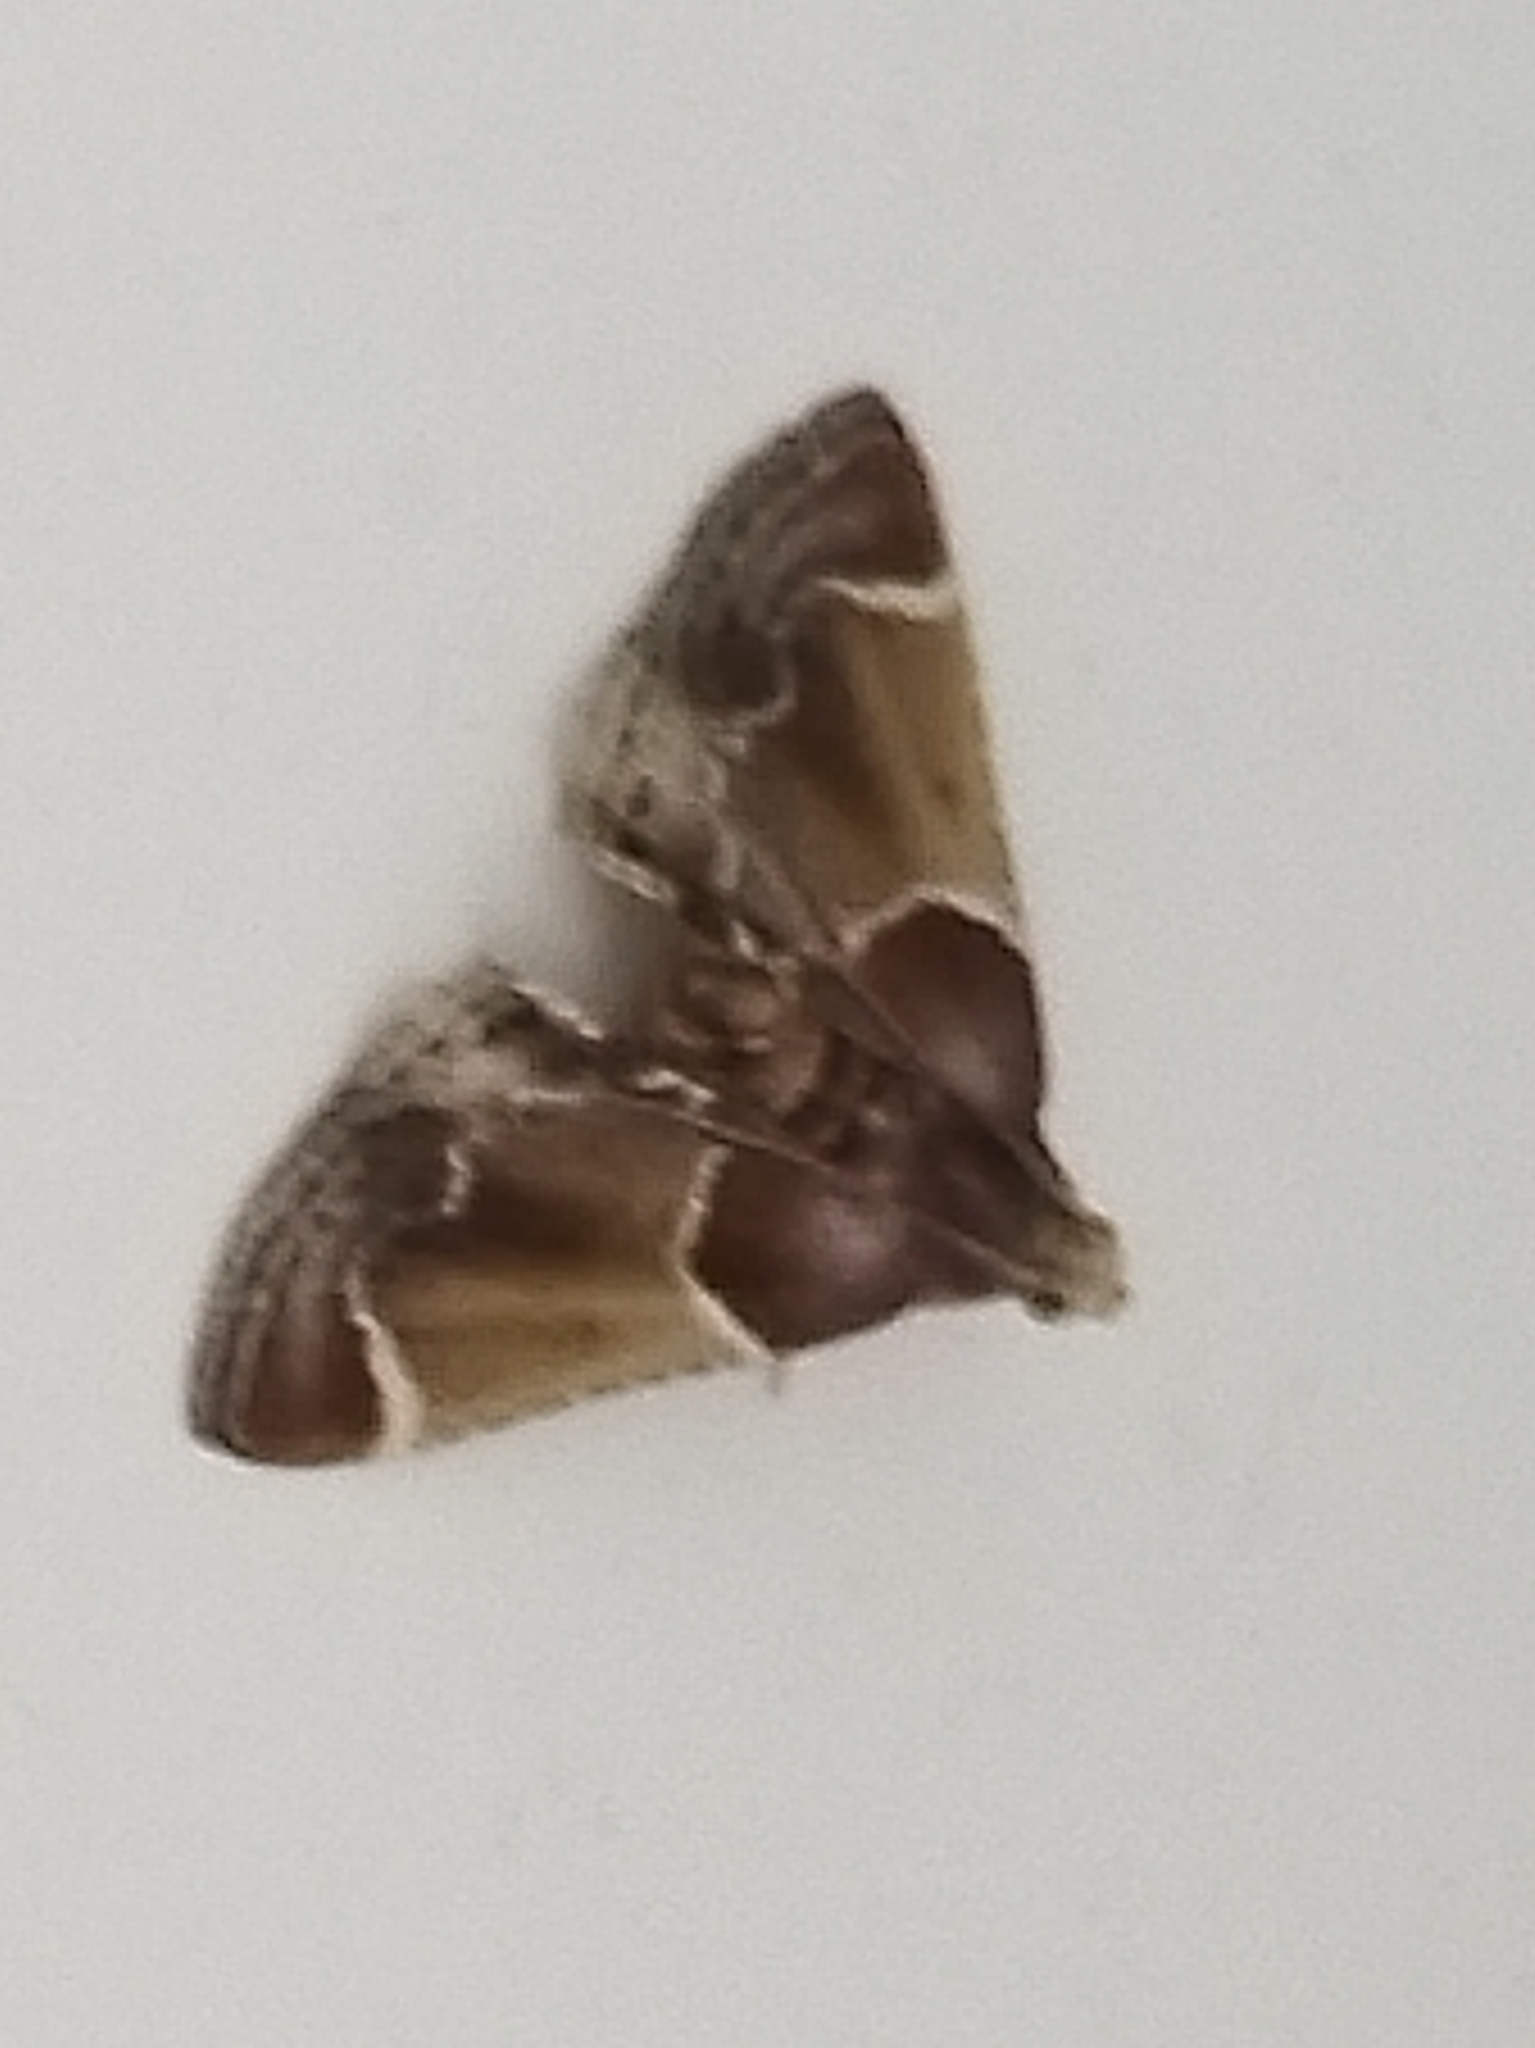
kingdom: Animalia
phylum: Arthropoda
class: Insecta
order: Lepidoptera
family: Pyralidae
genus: Pyralis
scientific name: Pyralis farinalis
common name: Meal moth
